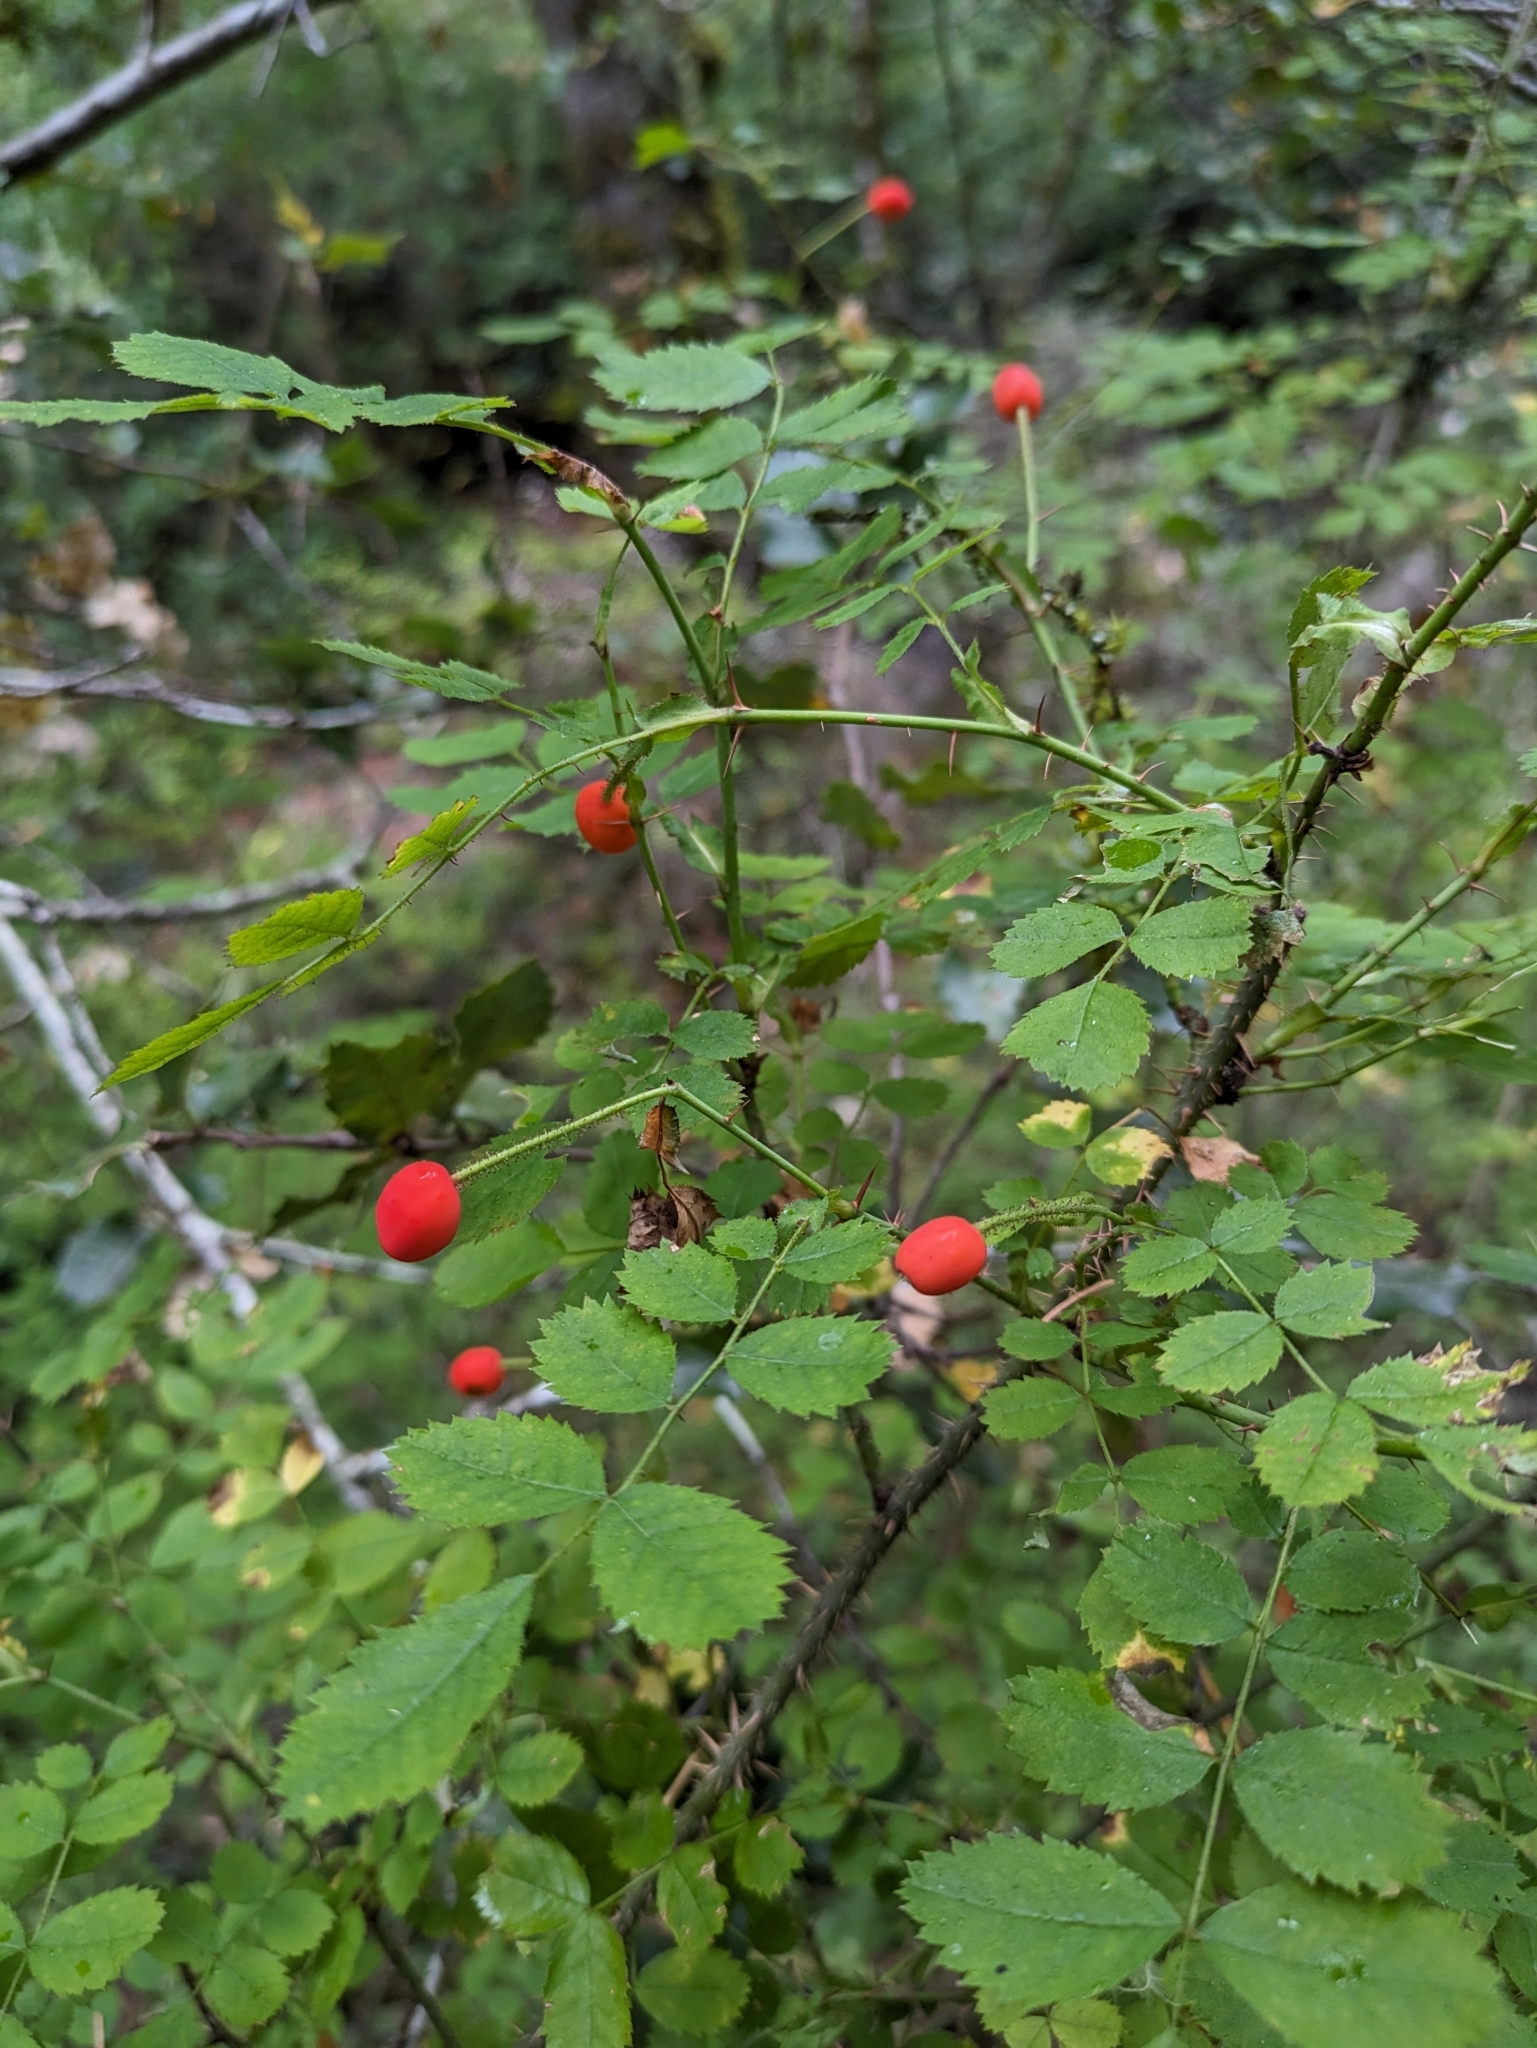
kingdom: Plantae
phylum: Tracheophyta
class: Magnoliopsida
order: Rosales
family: Rosaceae
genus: Rosa
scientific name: Rosa gymnocarpa
